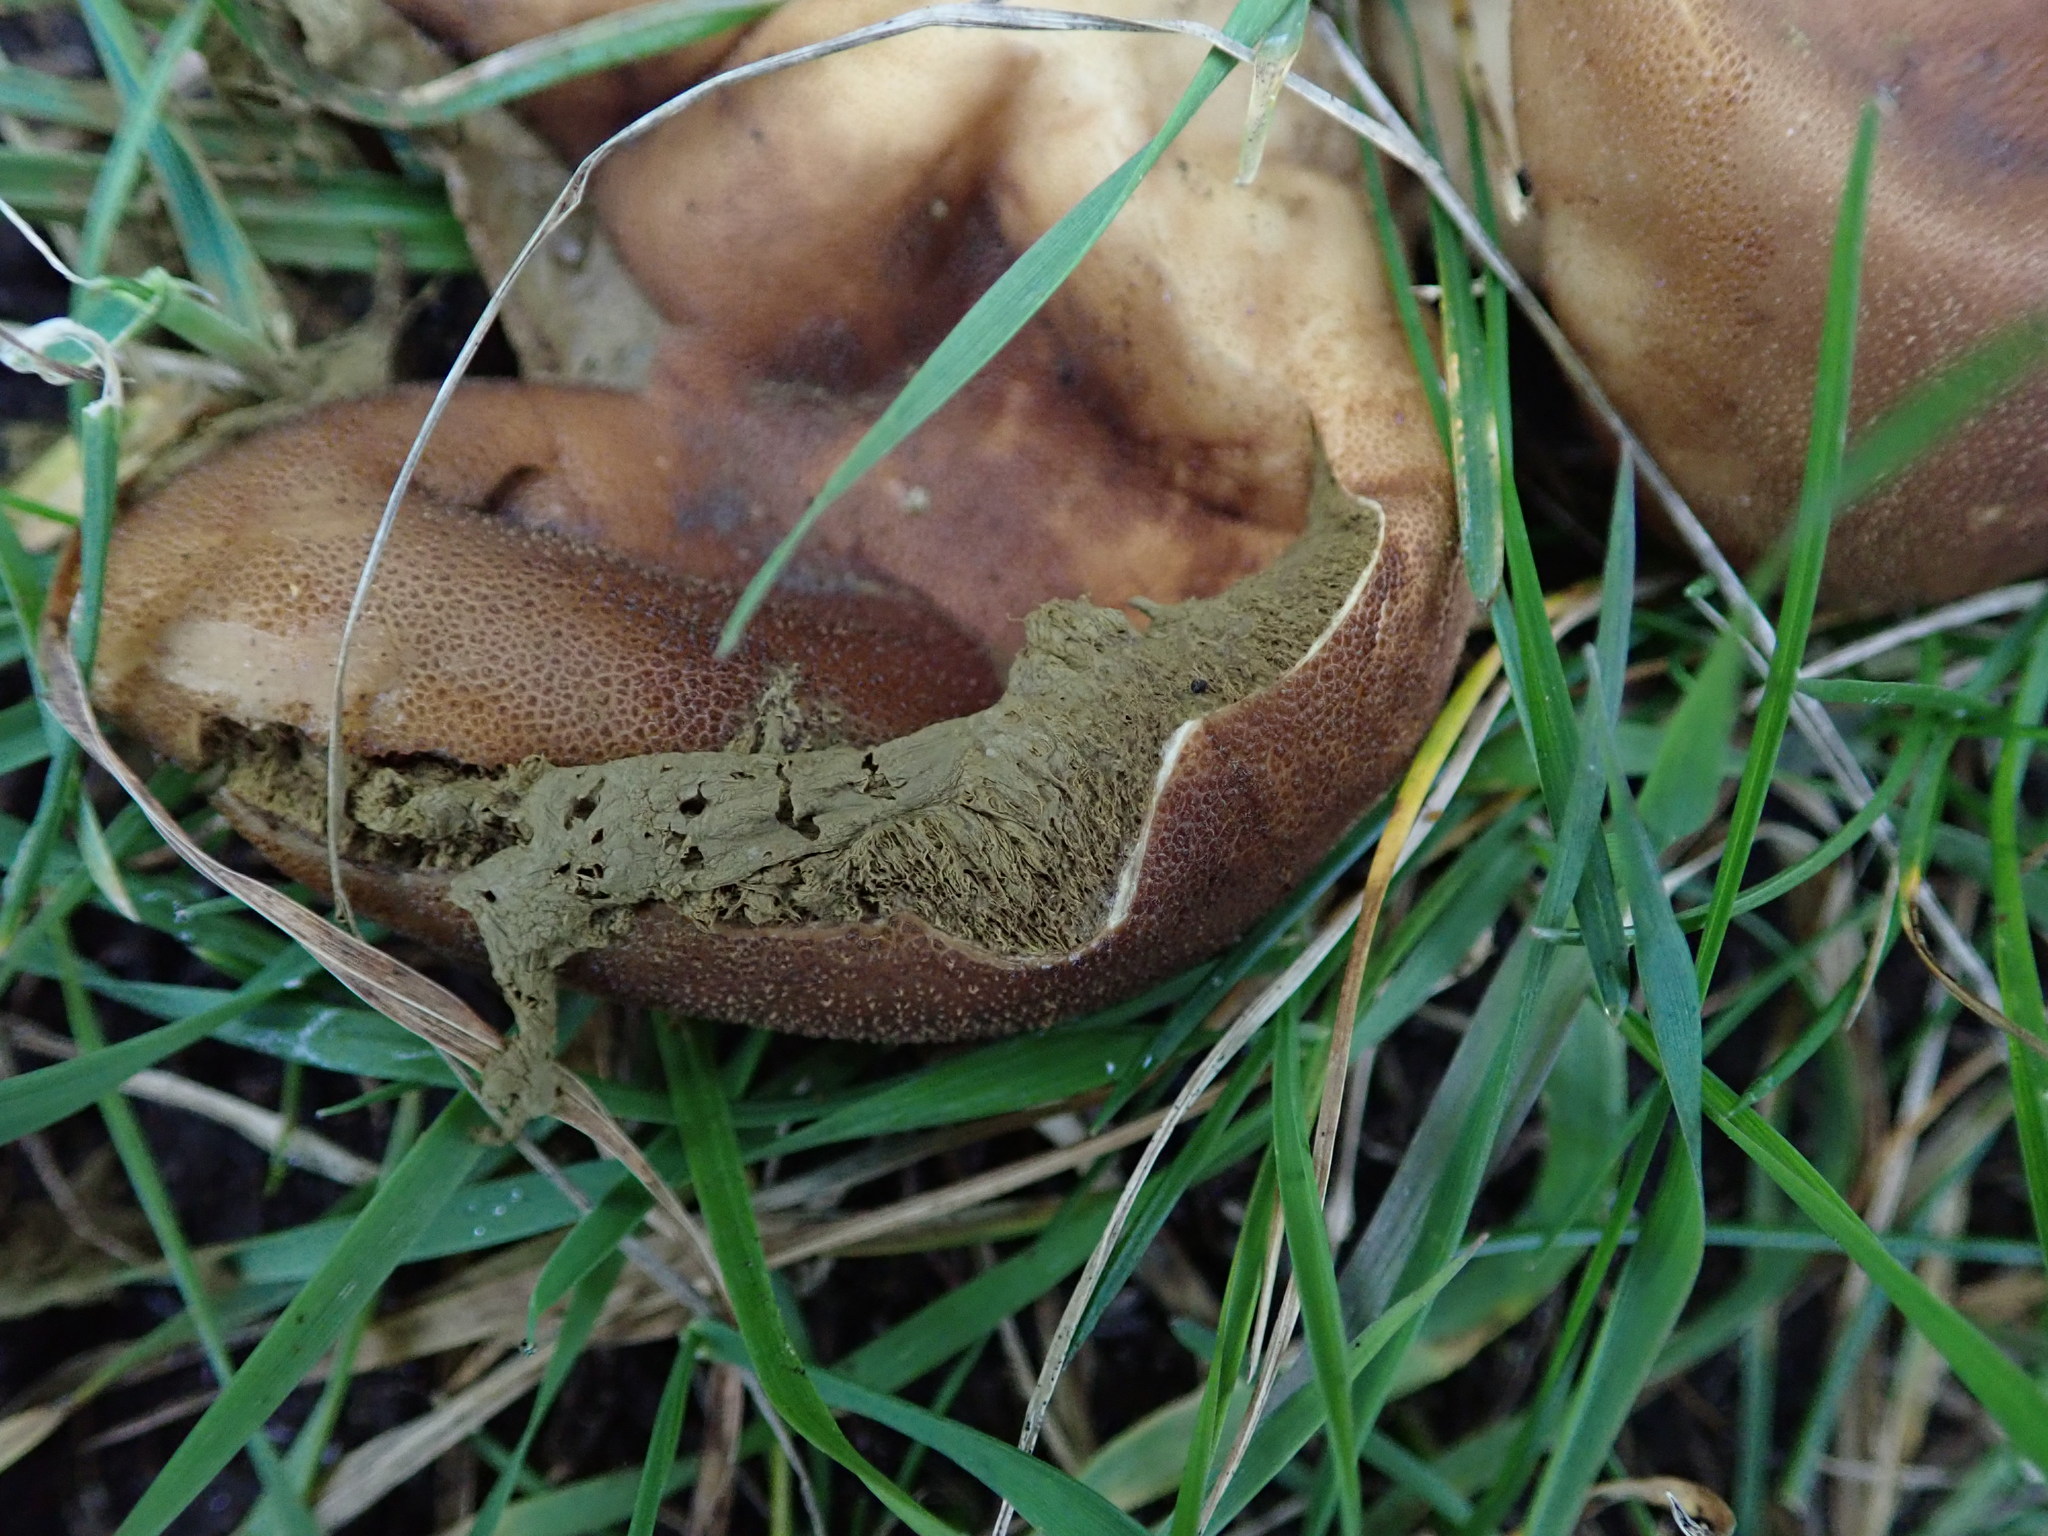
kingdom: Fungi
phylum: Basidiomycota
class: Agaricomycetes
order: Agaricales
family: Lycoperdaceae
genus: Lycoperdon
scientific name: Lycoperdon perlatum
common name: Common puffball
